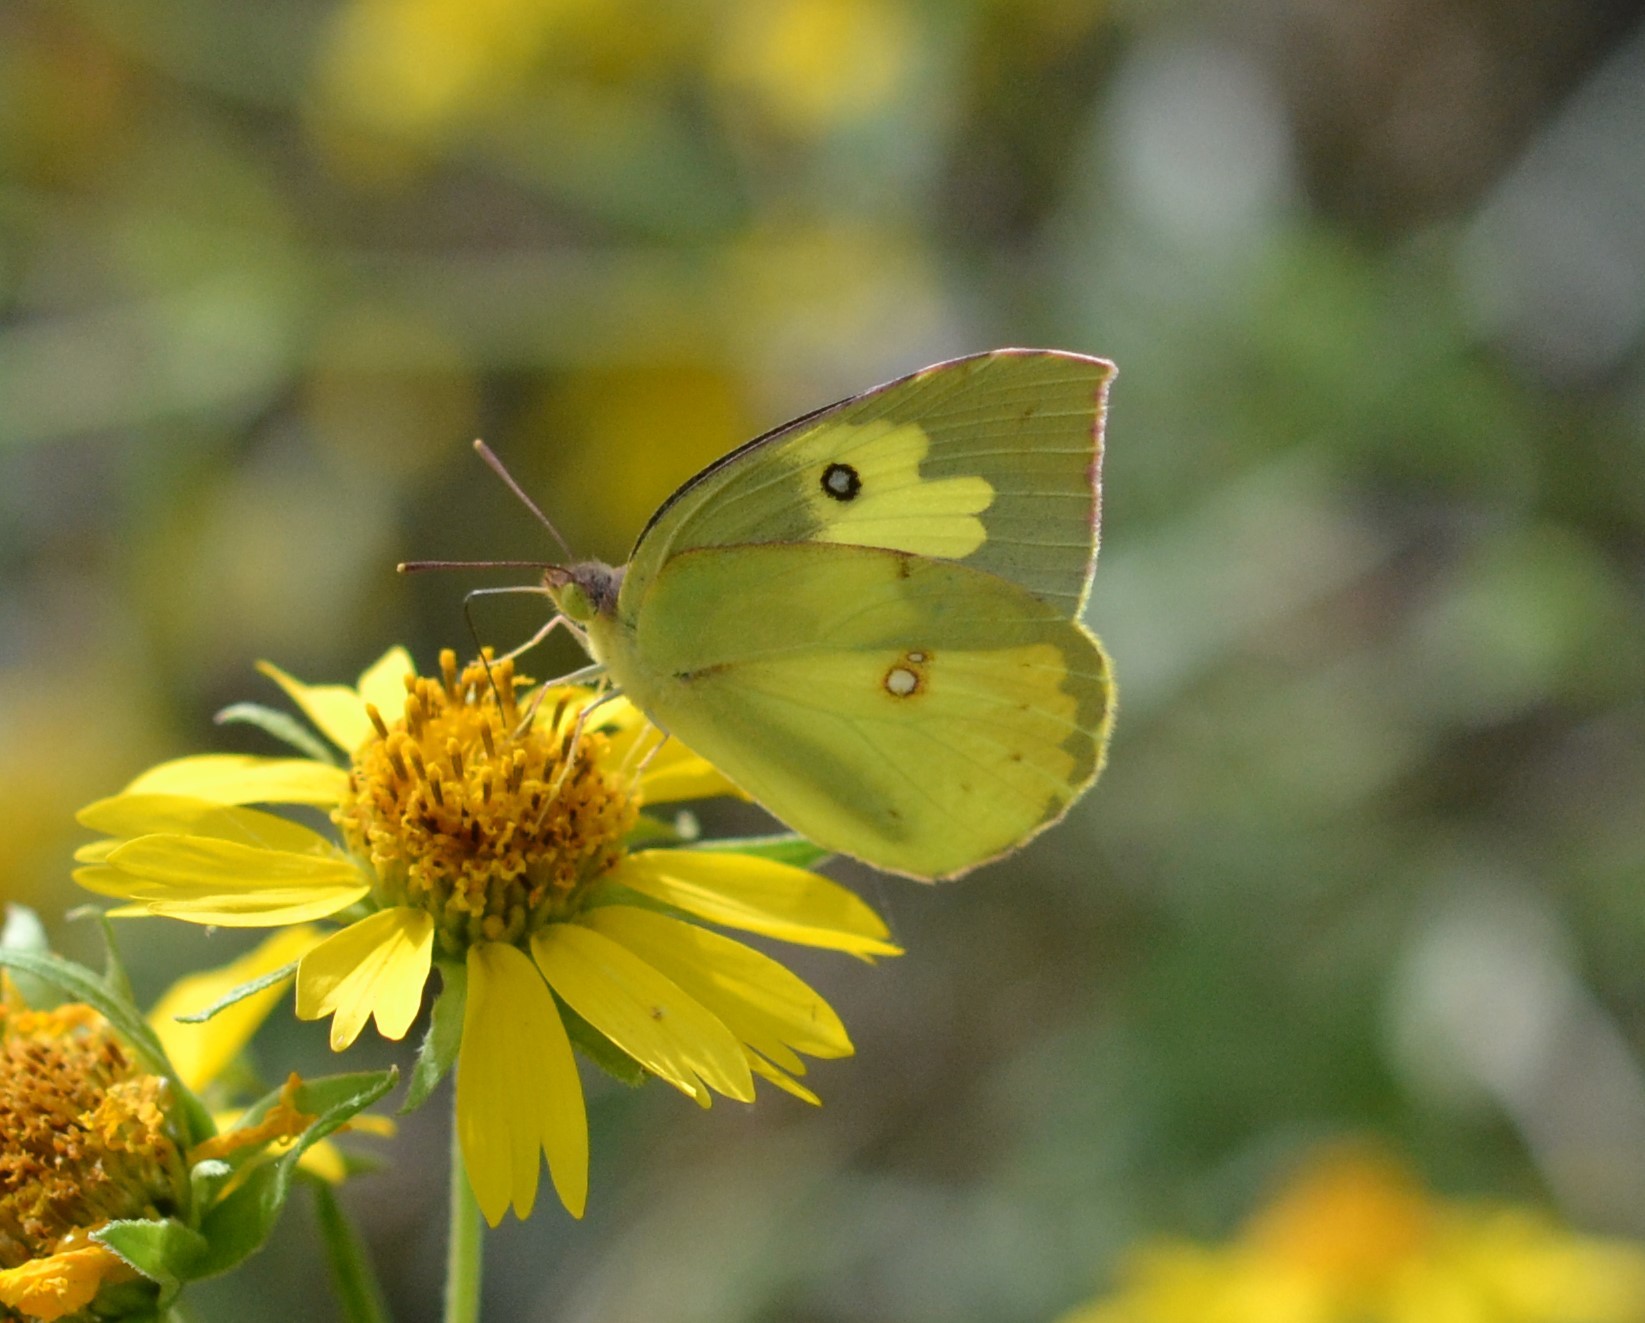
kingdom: Animalia
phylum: Arthropoda
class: Insecta
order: Lepidoptera
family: Pieridae
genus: Zerene
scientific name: Zerene cesonia
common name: Southern dogface
